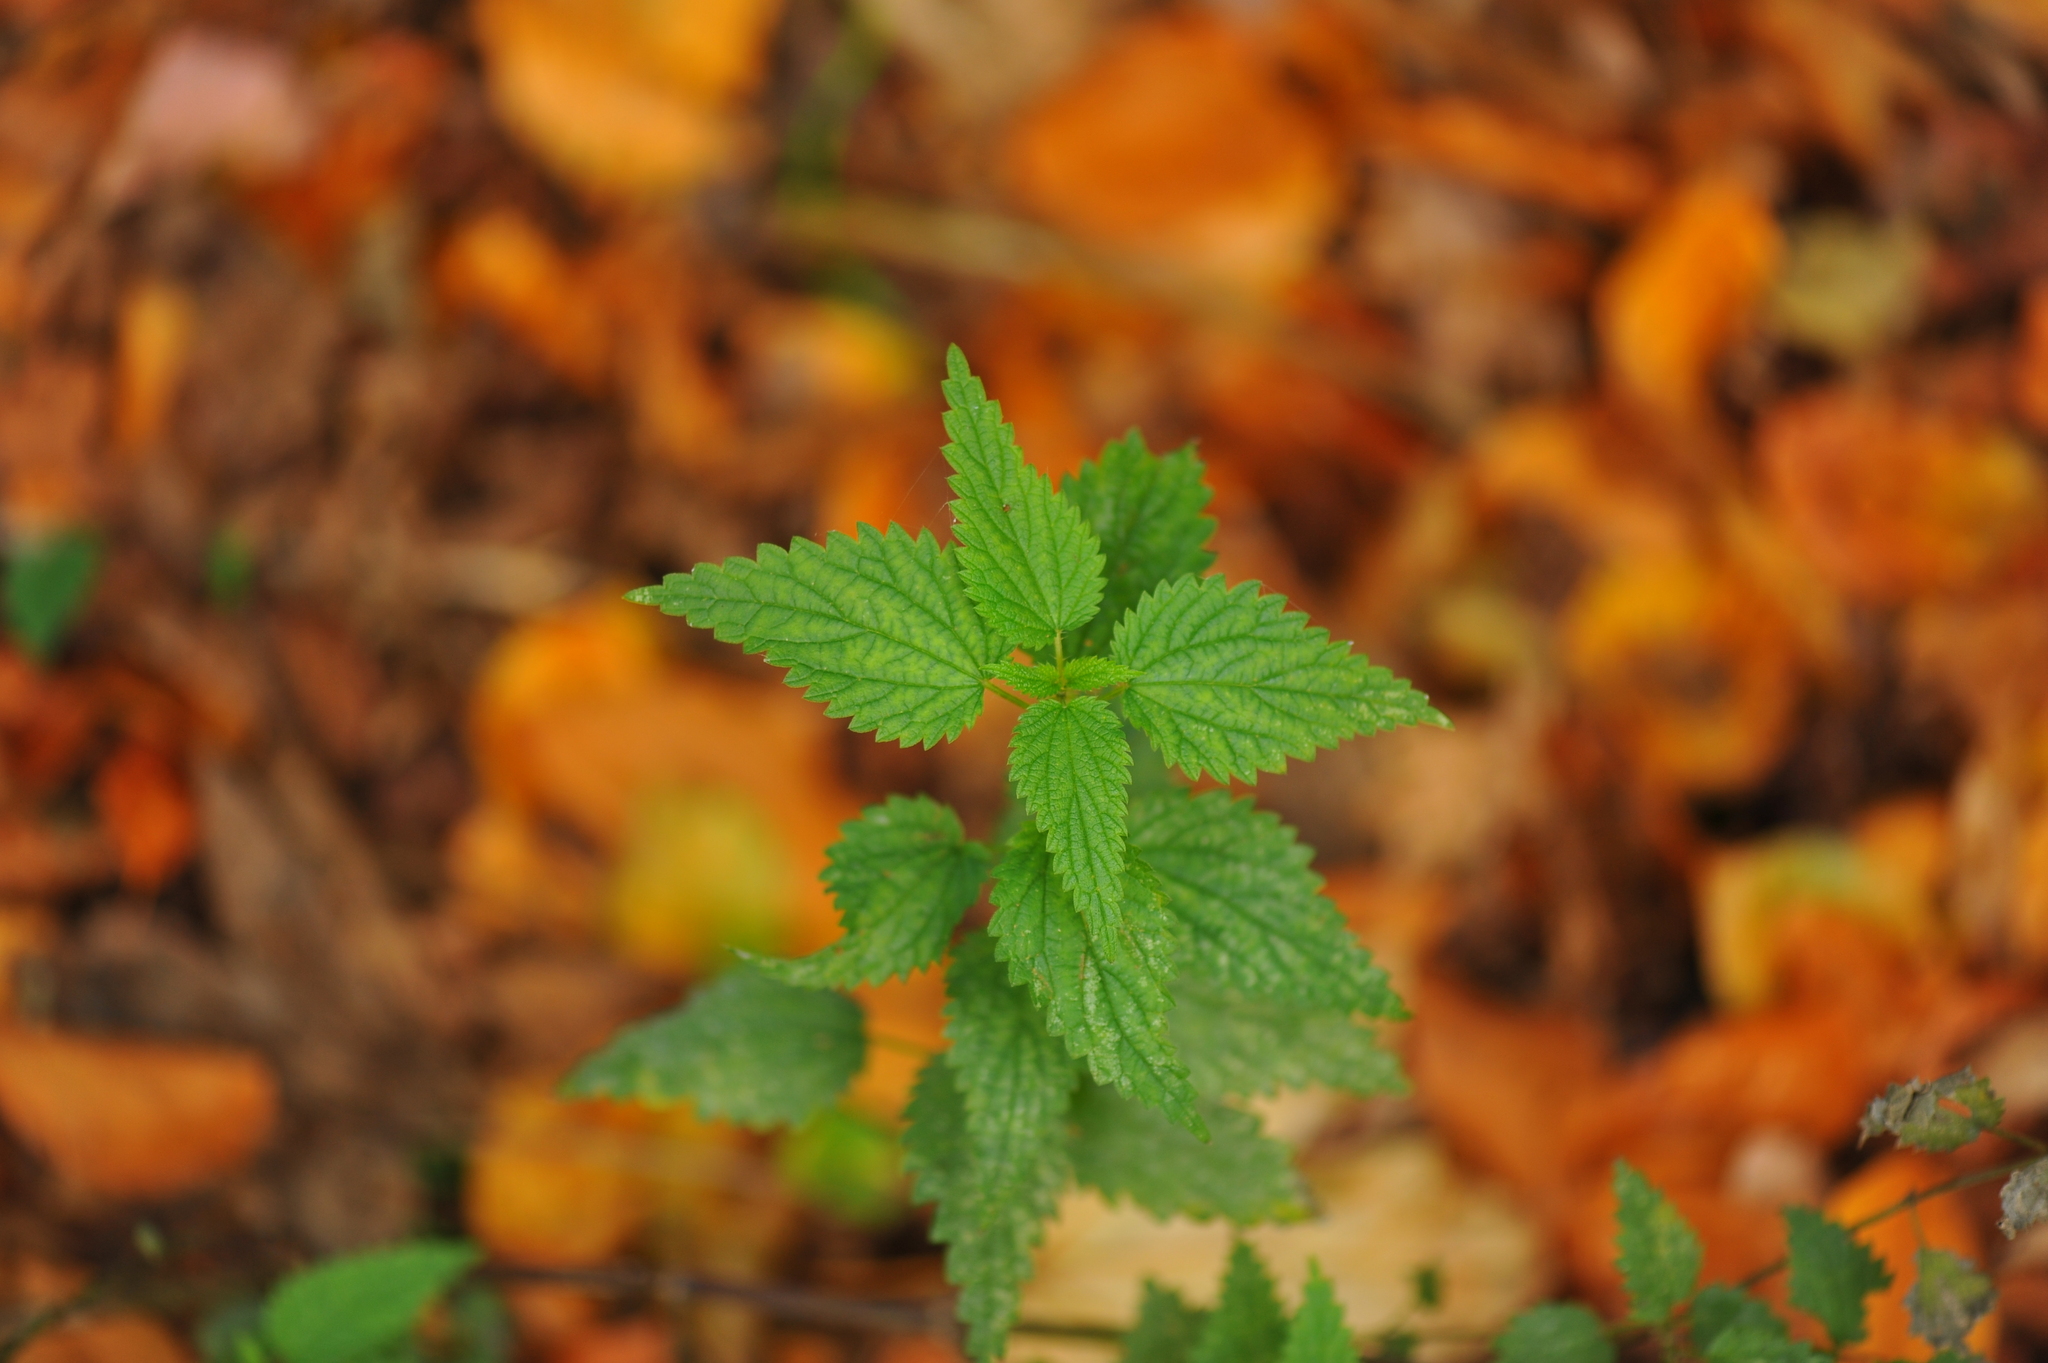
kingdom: Plantae
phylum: Tracheophyta
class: Magnoliopsida
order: Rosales
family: Urticaceae
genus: Urtica
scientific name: Urtica dioica
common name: Common nettle
